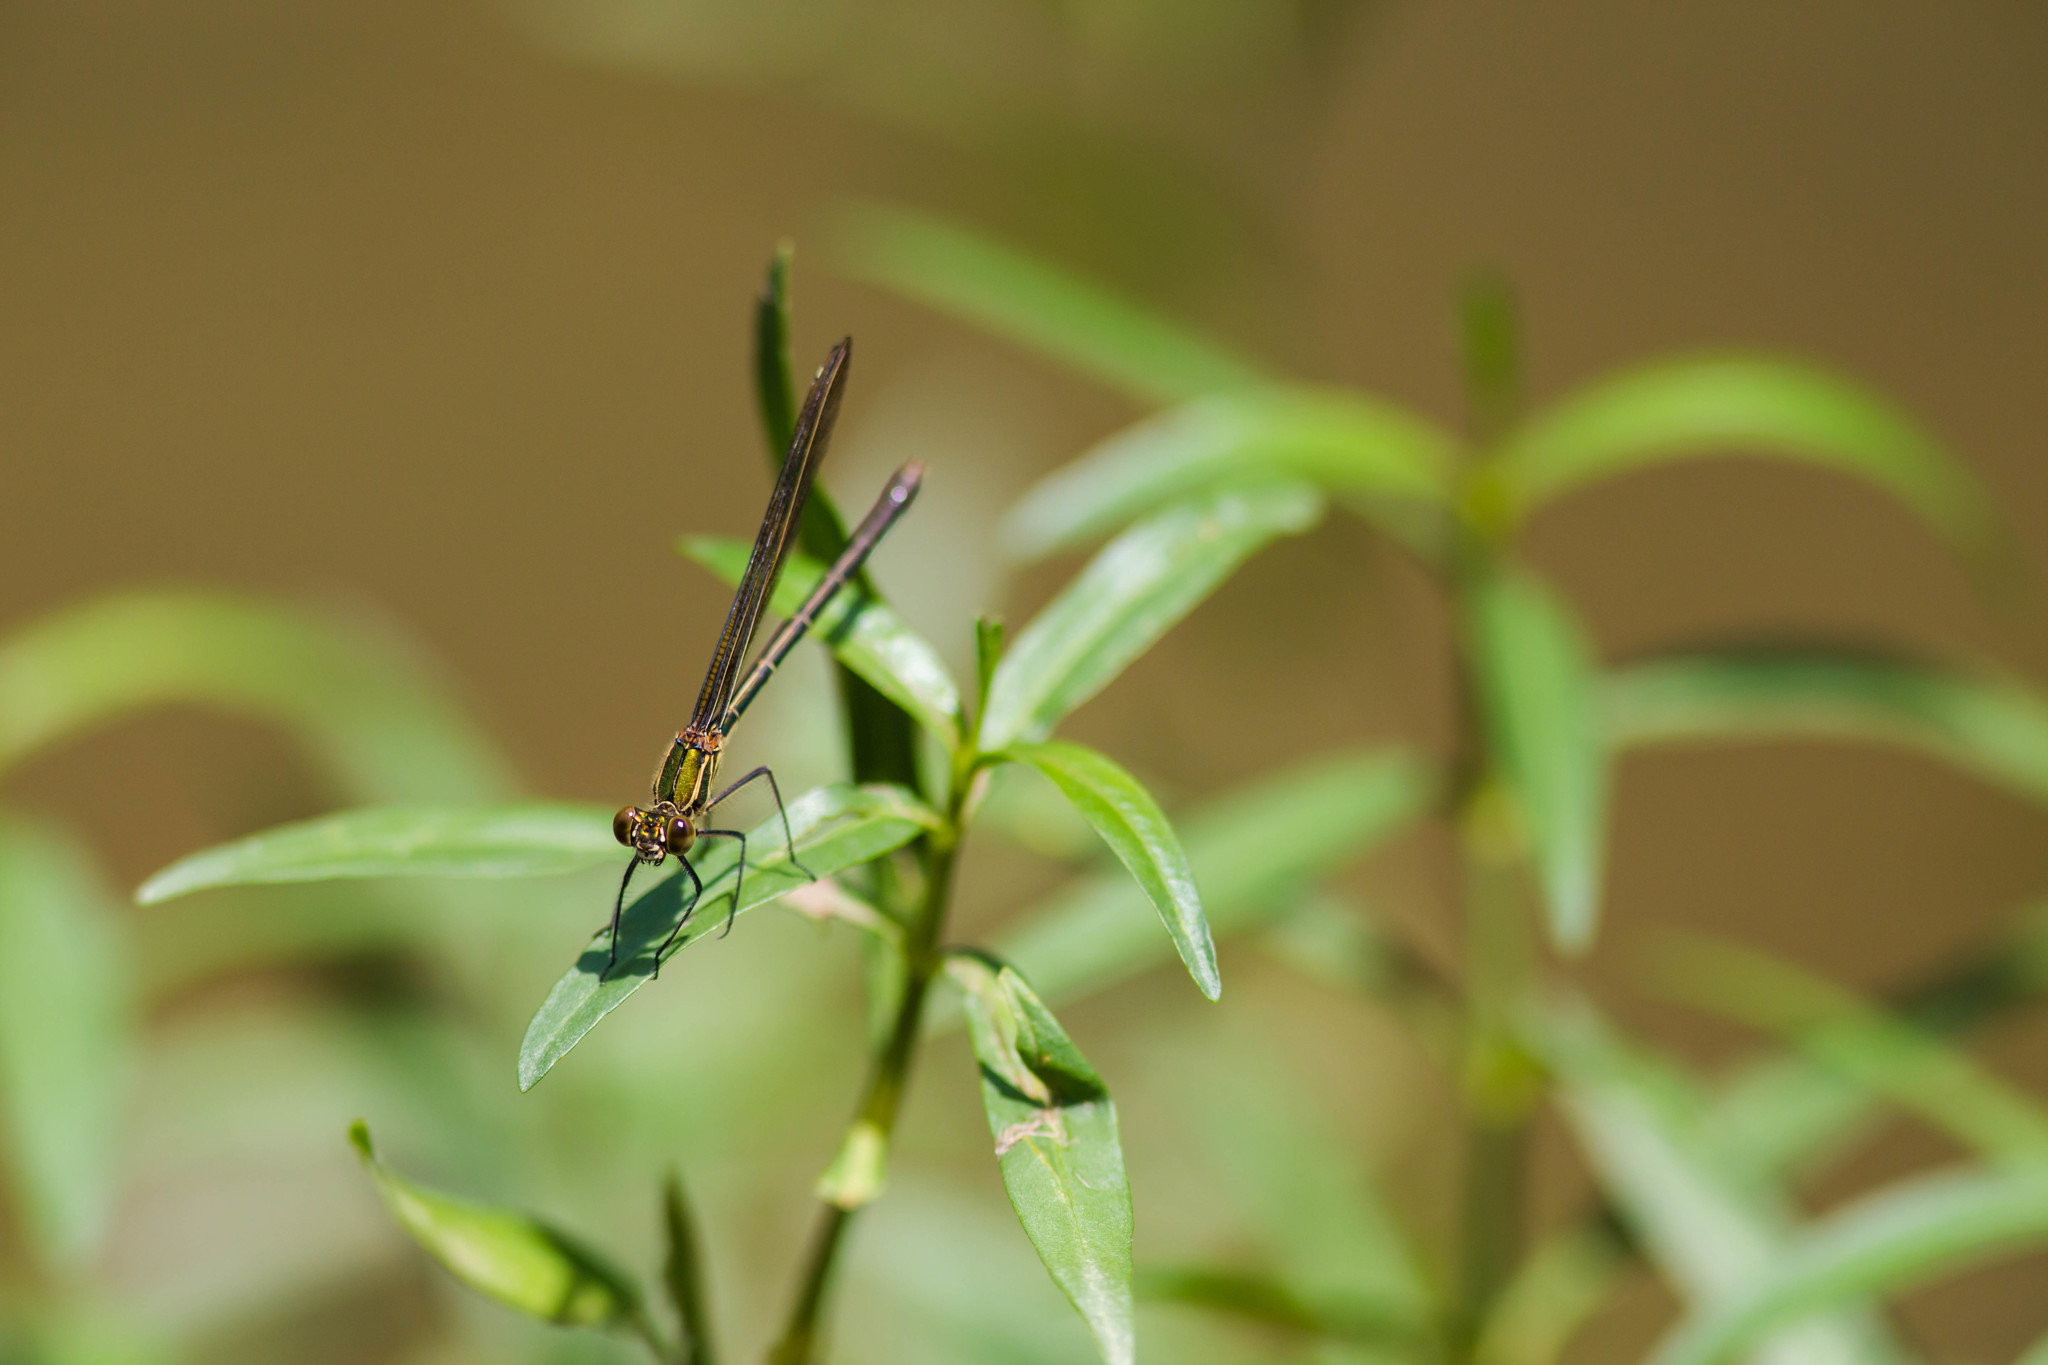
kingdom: Animalia
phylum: Arthropoda
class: Insecta
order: Odonata
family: Calopterygidae
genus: Hetaerina
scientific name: Hetaerina americana
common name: American rubyspot
